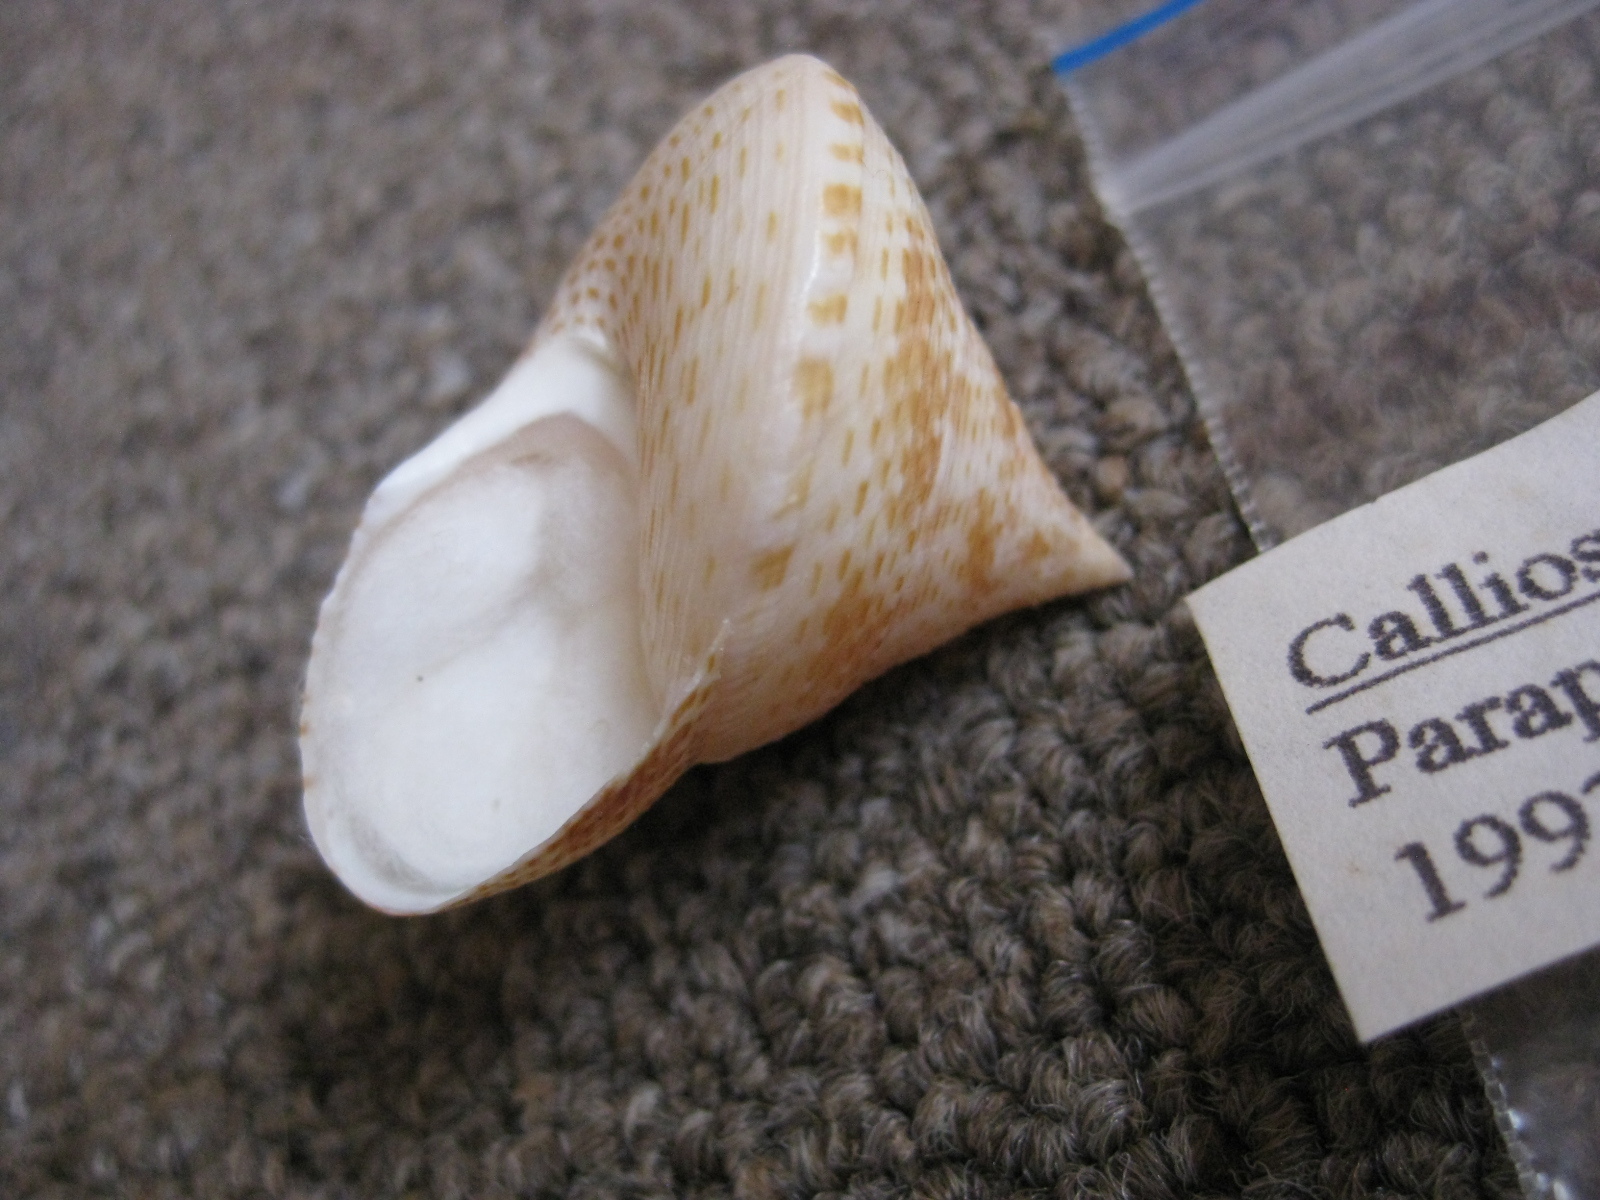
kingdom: Animalia
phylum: Mollusca
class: Gastropoda
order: Trochida
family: Calliostomatidae
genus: Maurea
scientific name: Maurea waikanae
